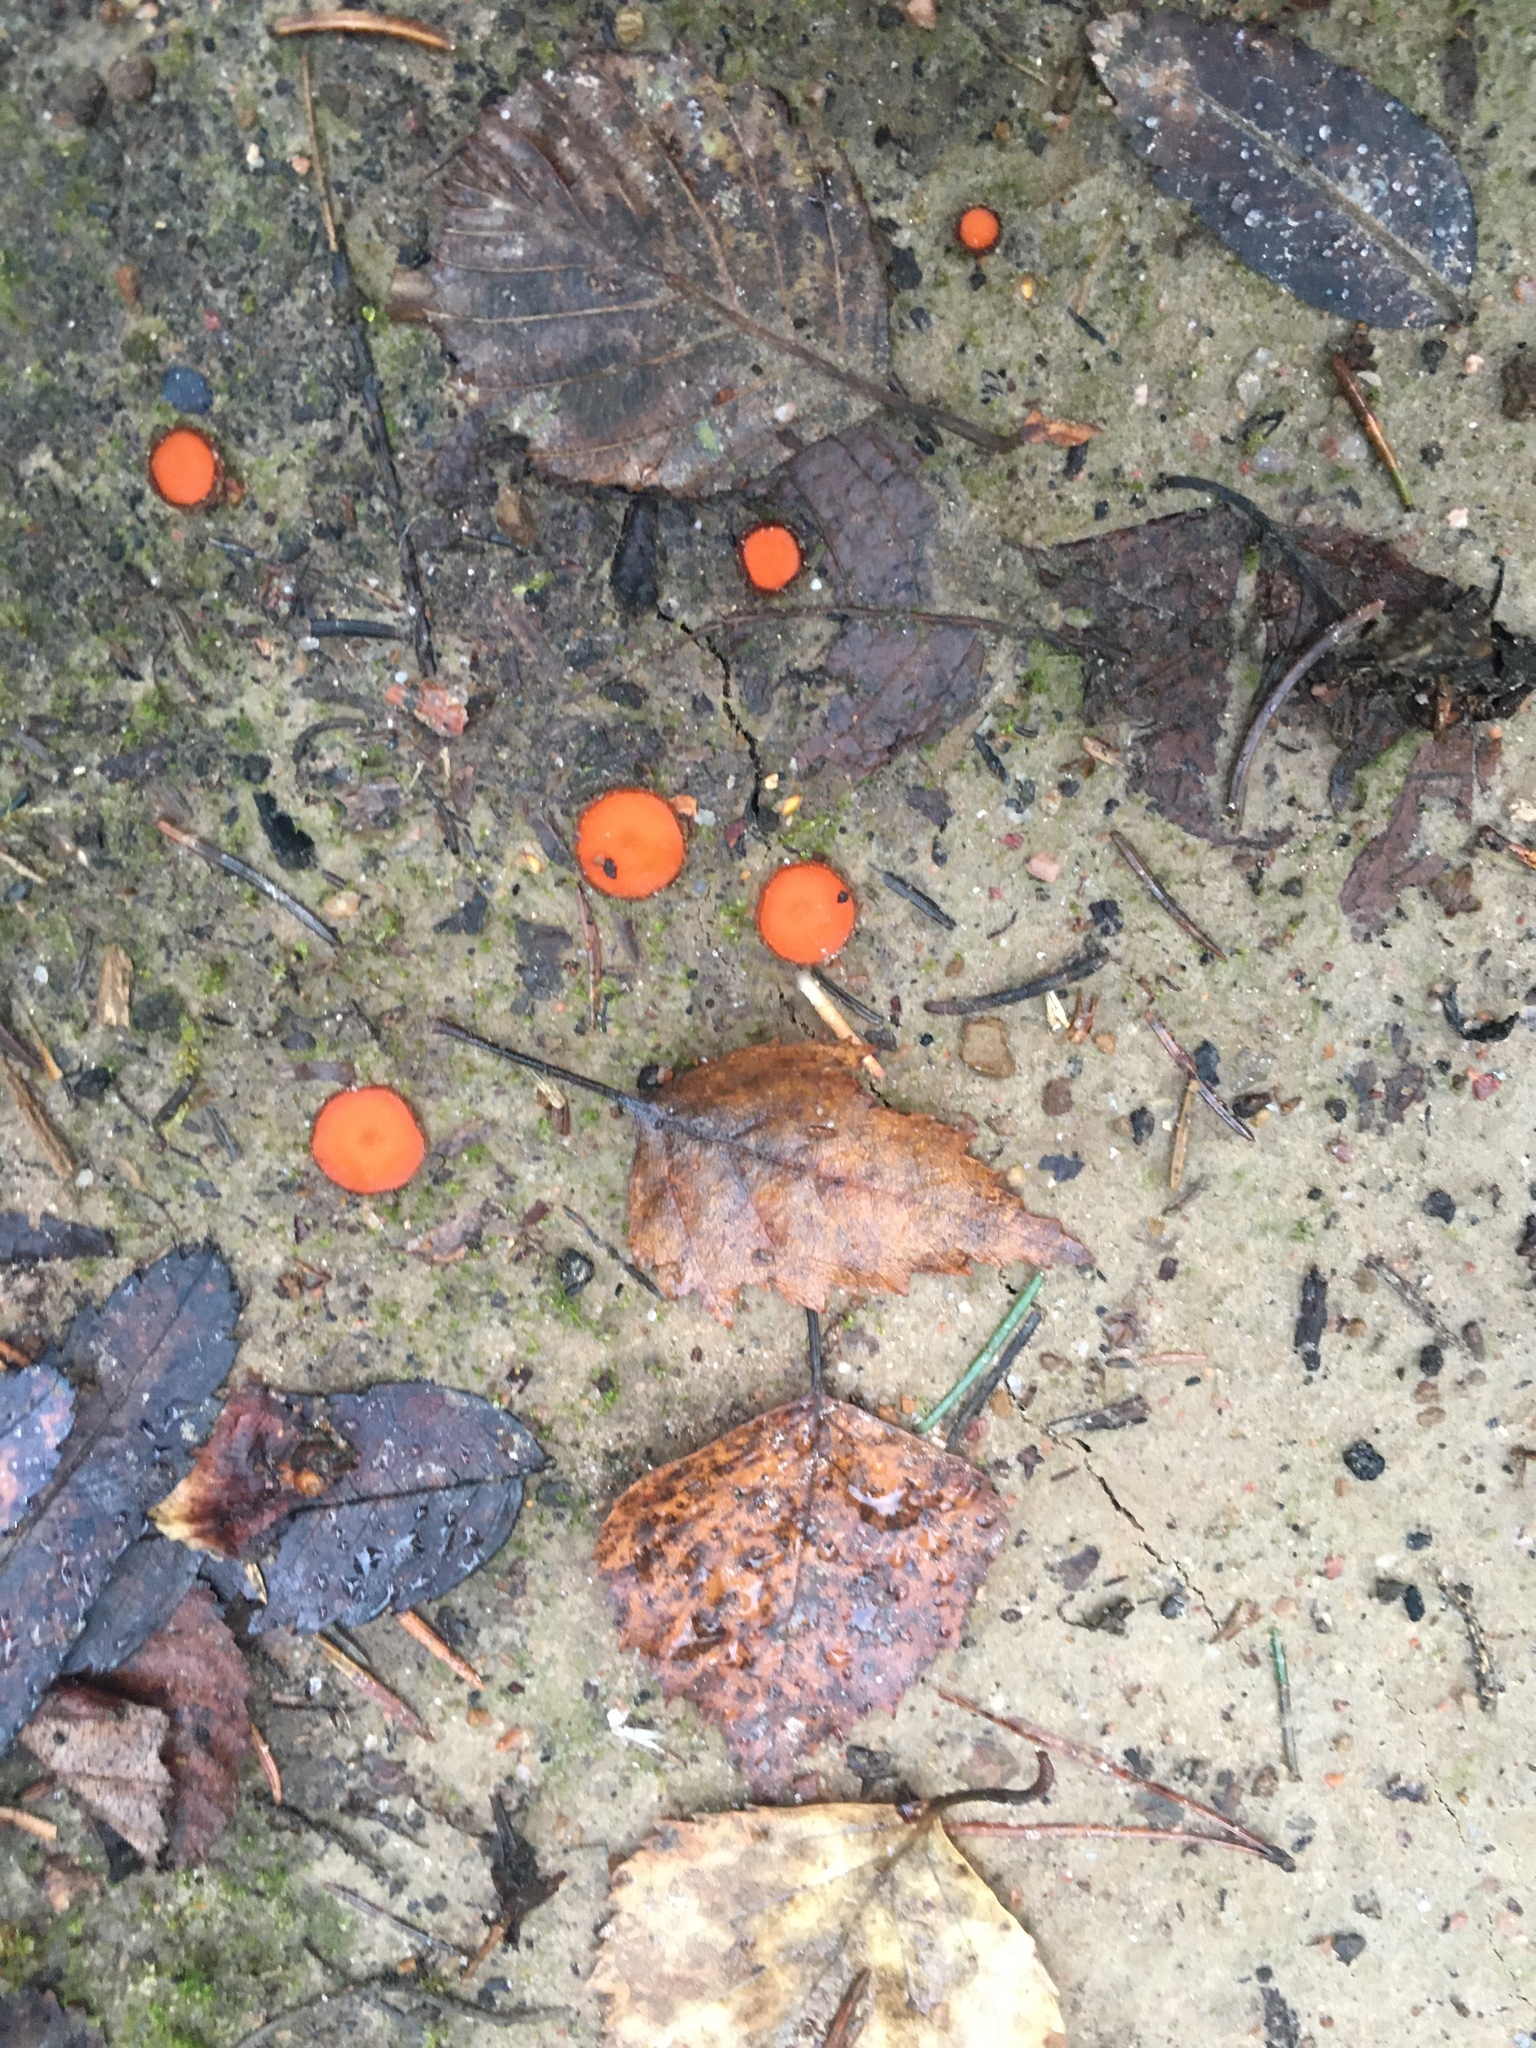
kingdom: Fungi
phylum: Ascomycota
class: Pezizomycetes
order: Pezizales
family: Pyronemataceae
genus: Scutellinia
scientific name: Scutellinia
